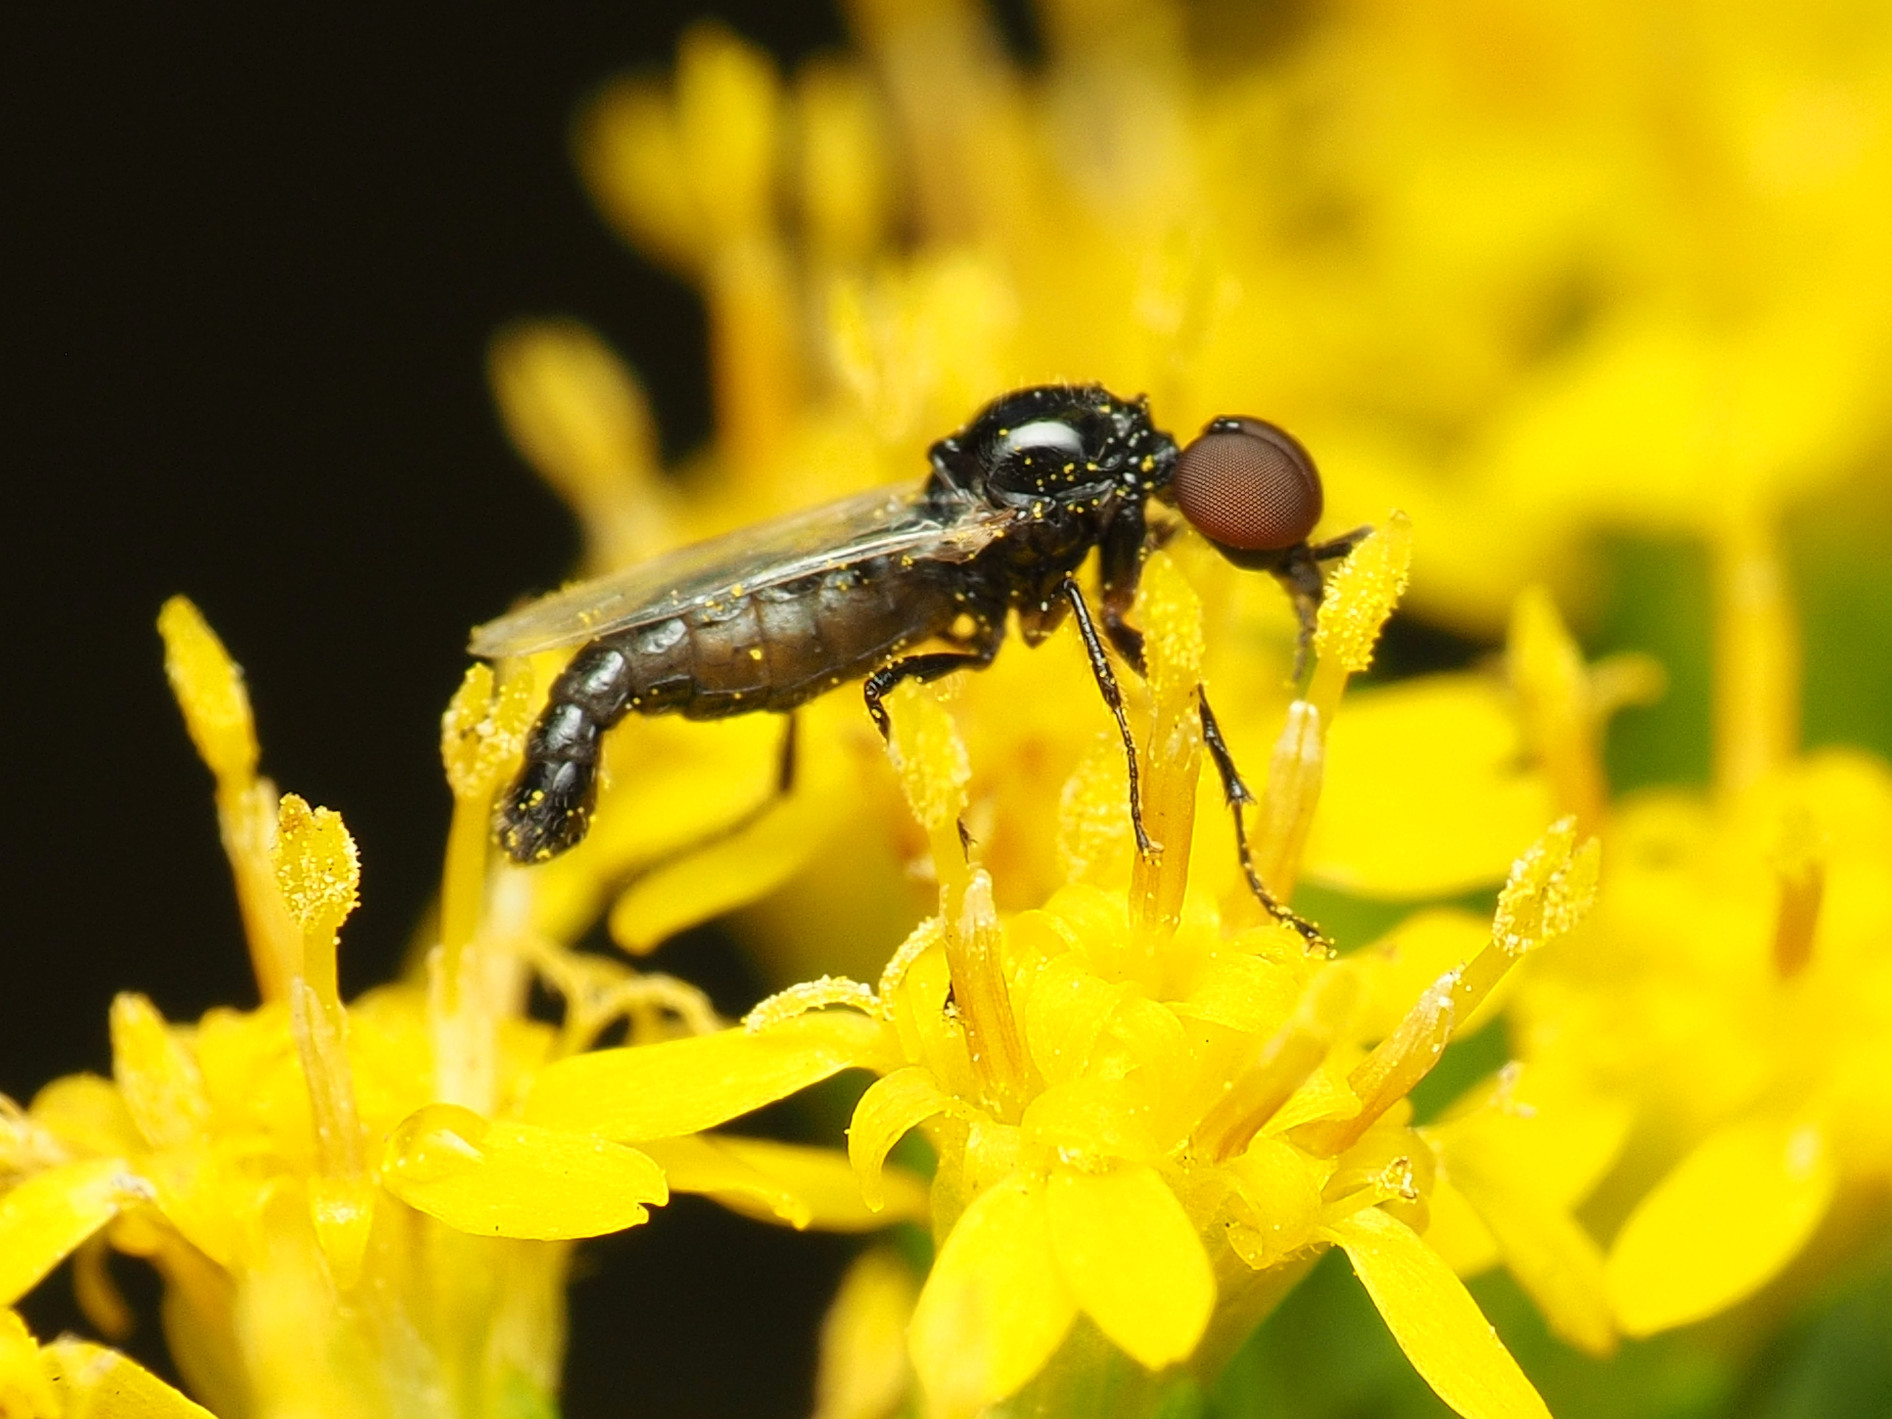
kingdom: Animalia
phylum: Arthropoda
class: Insecta
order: Diptera
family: Bibionidae
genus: Dilophus
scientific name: Dilophus
